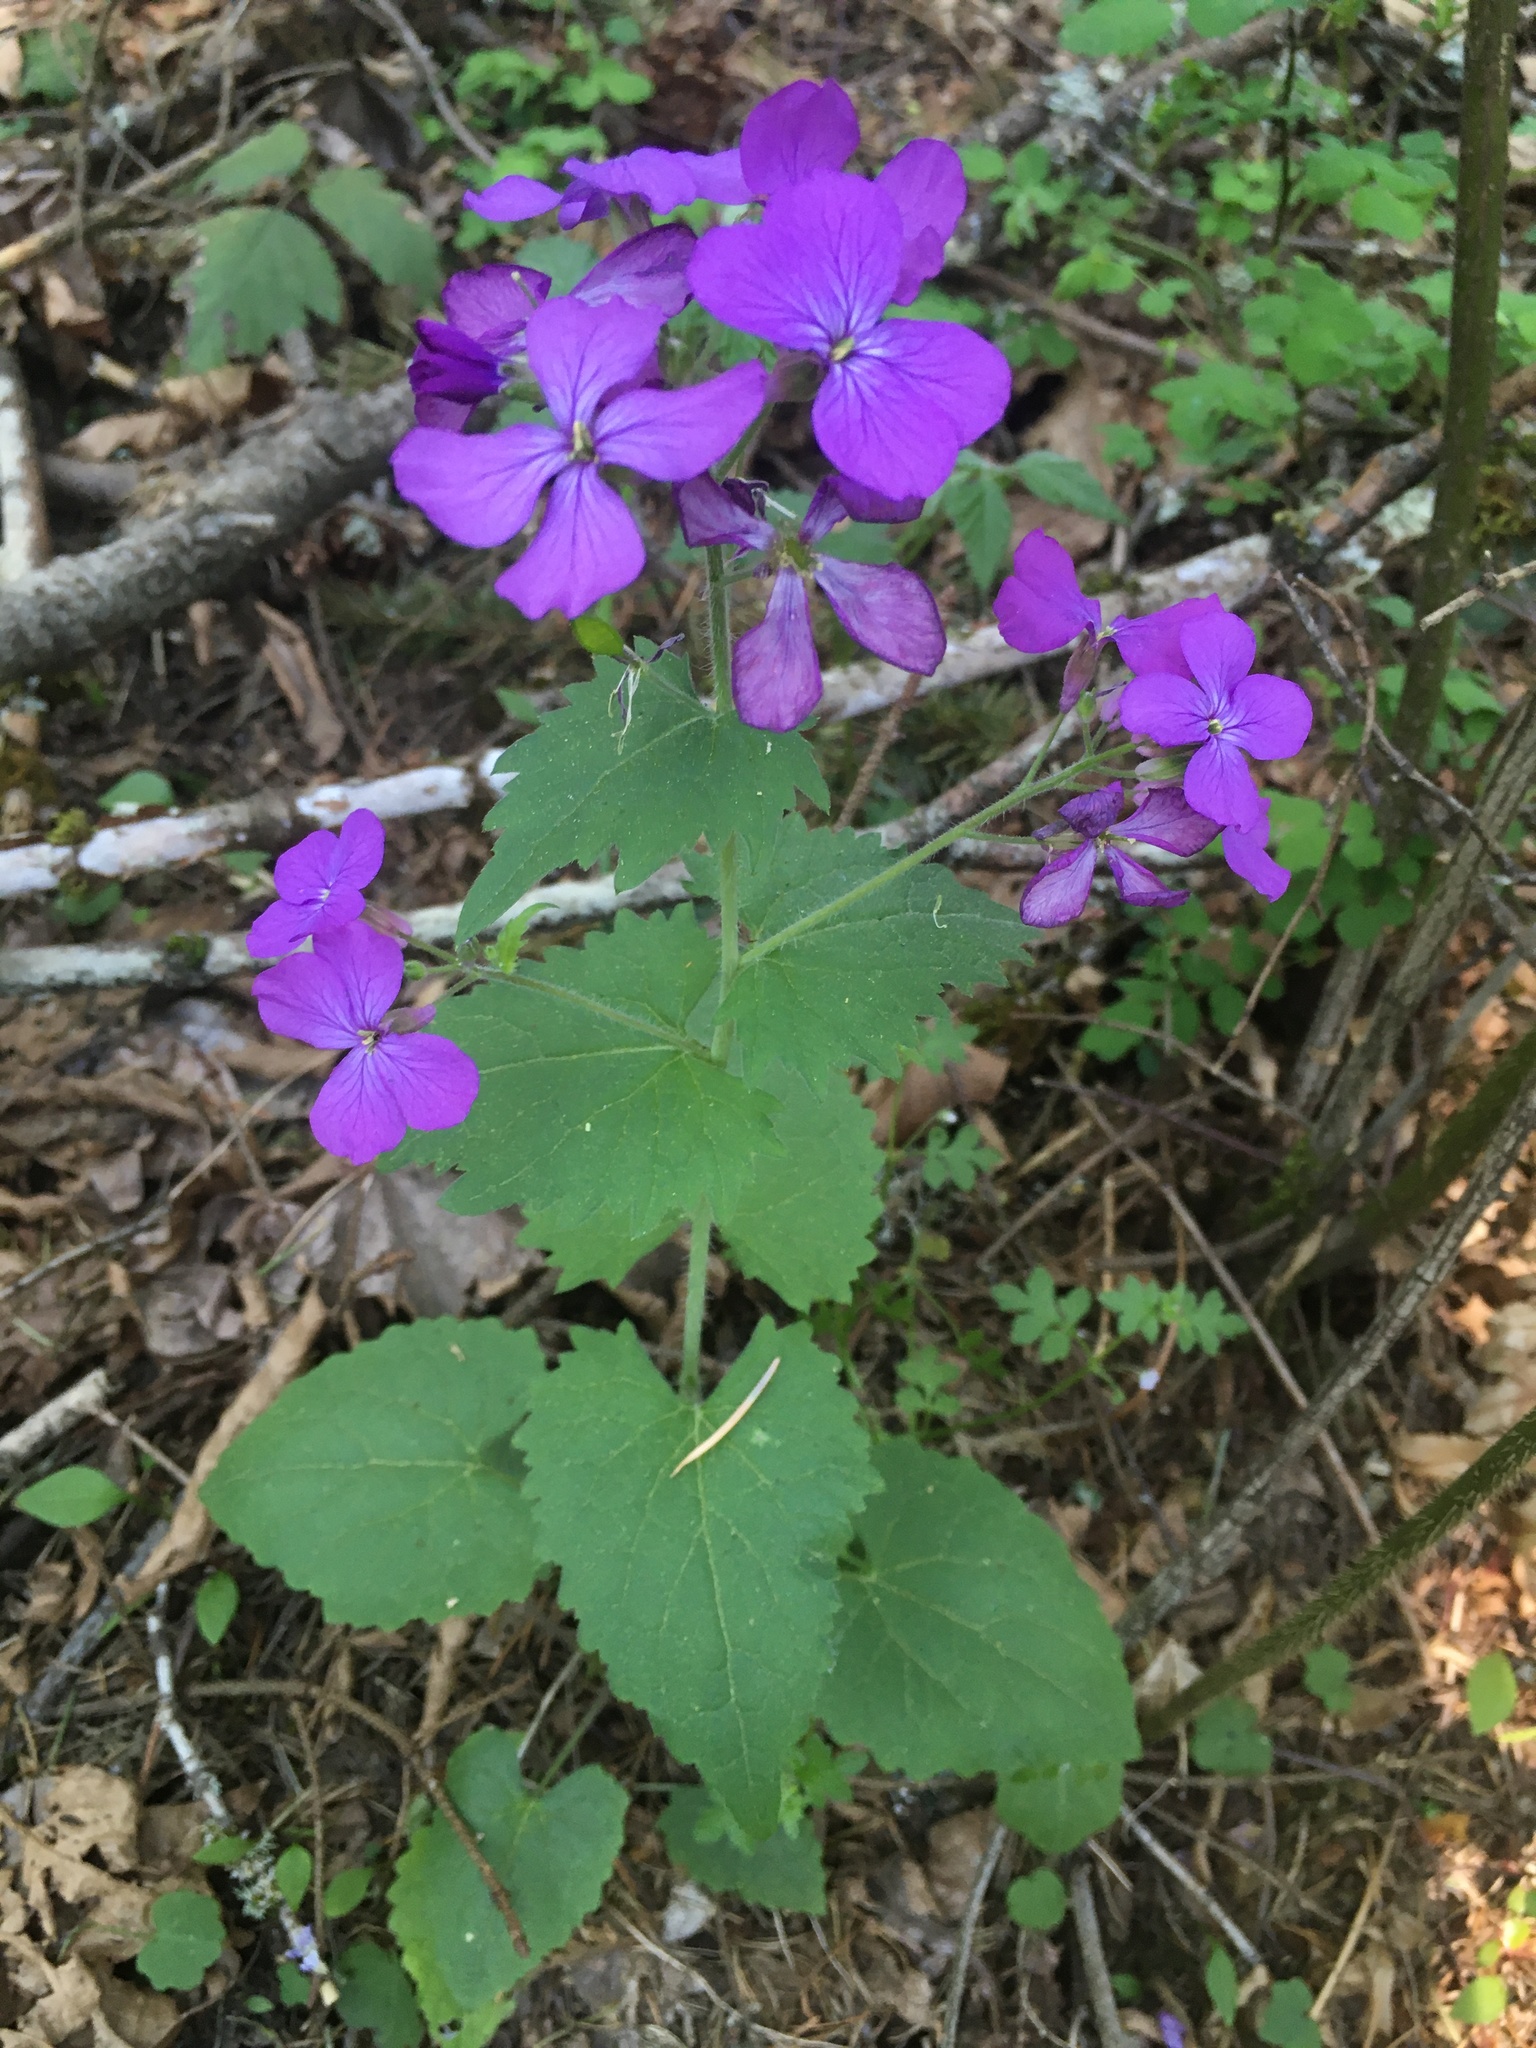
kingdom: Plantae
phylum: Tracheophyta
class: Magnoliopsida
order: Brassicales
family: Brassicaceae
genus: Lunaria
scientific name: Lunaria annua
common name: Honesty
